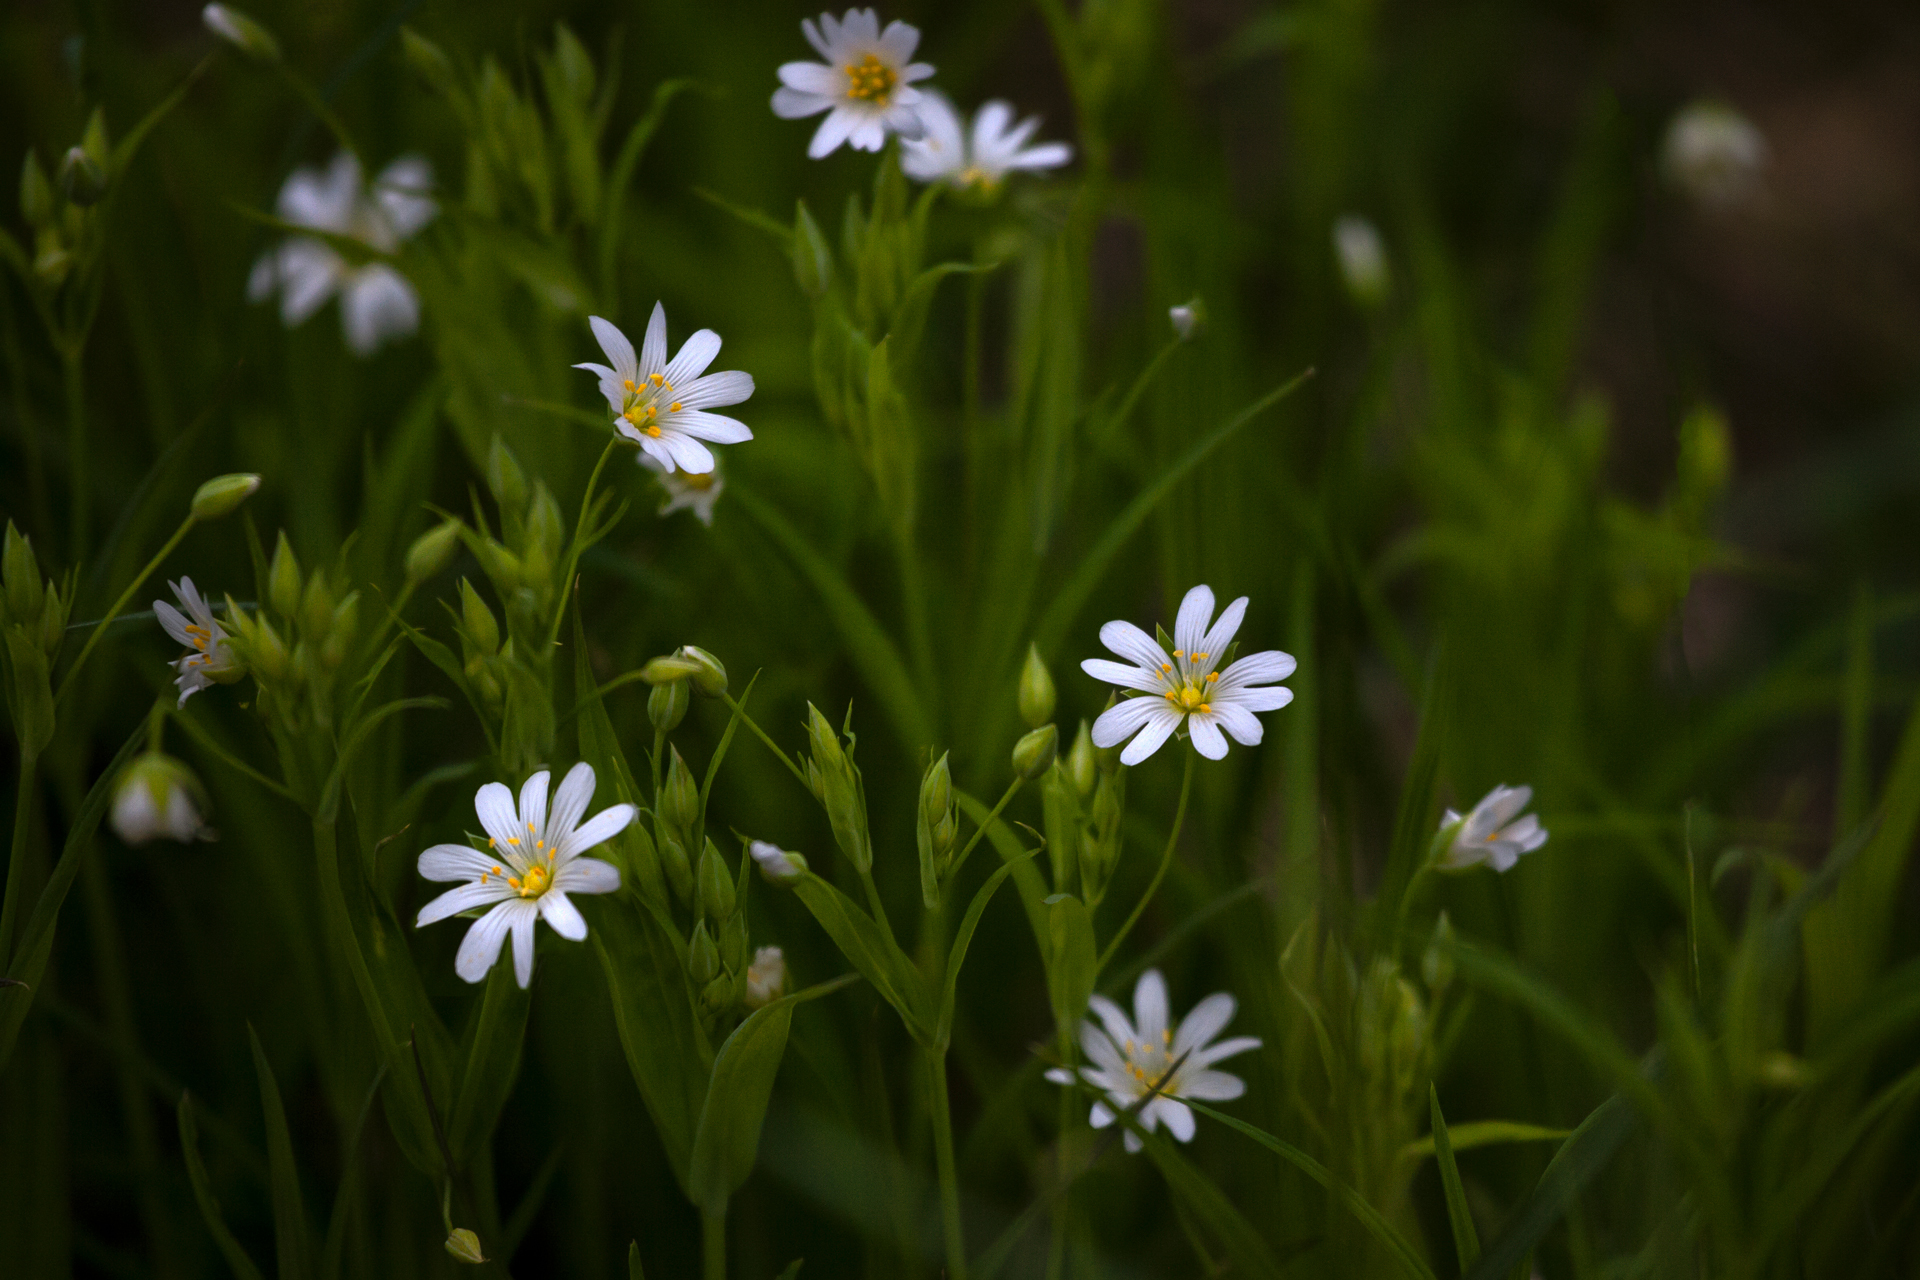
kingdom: Plantae
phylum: Tracheophyta
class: Magnoliopsida
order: Caryophyllales
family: Caryophyllaceae
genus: Rabelera
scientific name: Rabelera holostea
